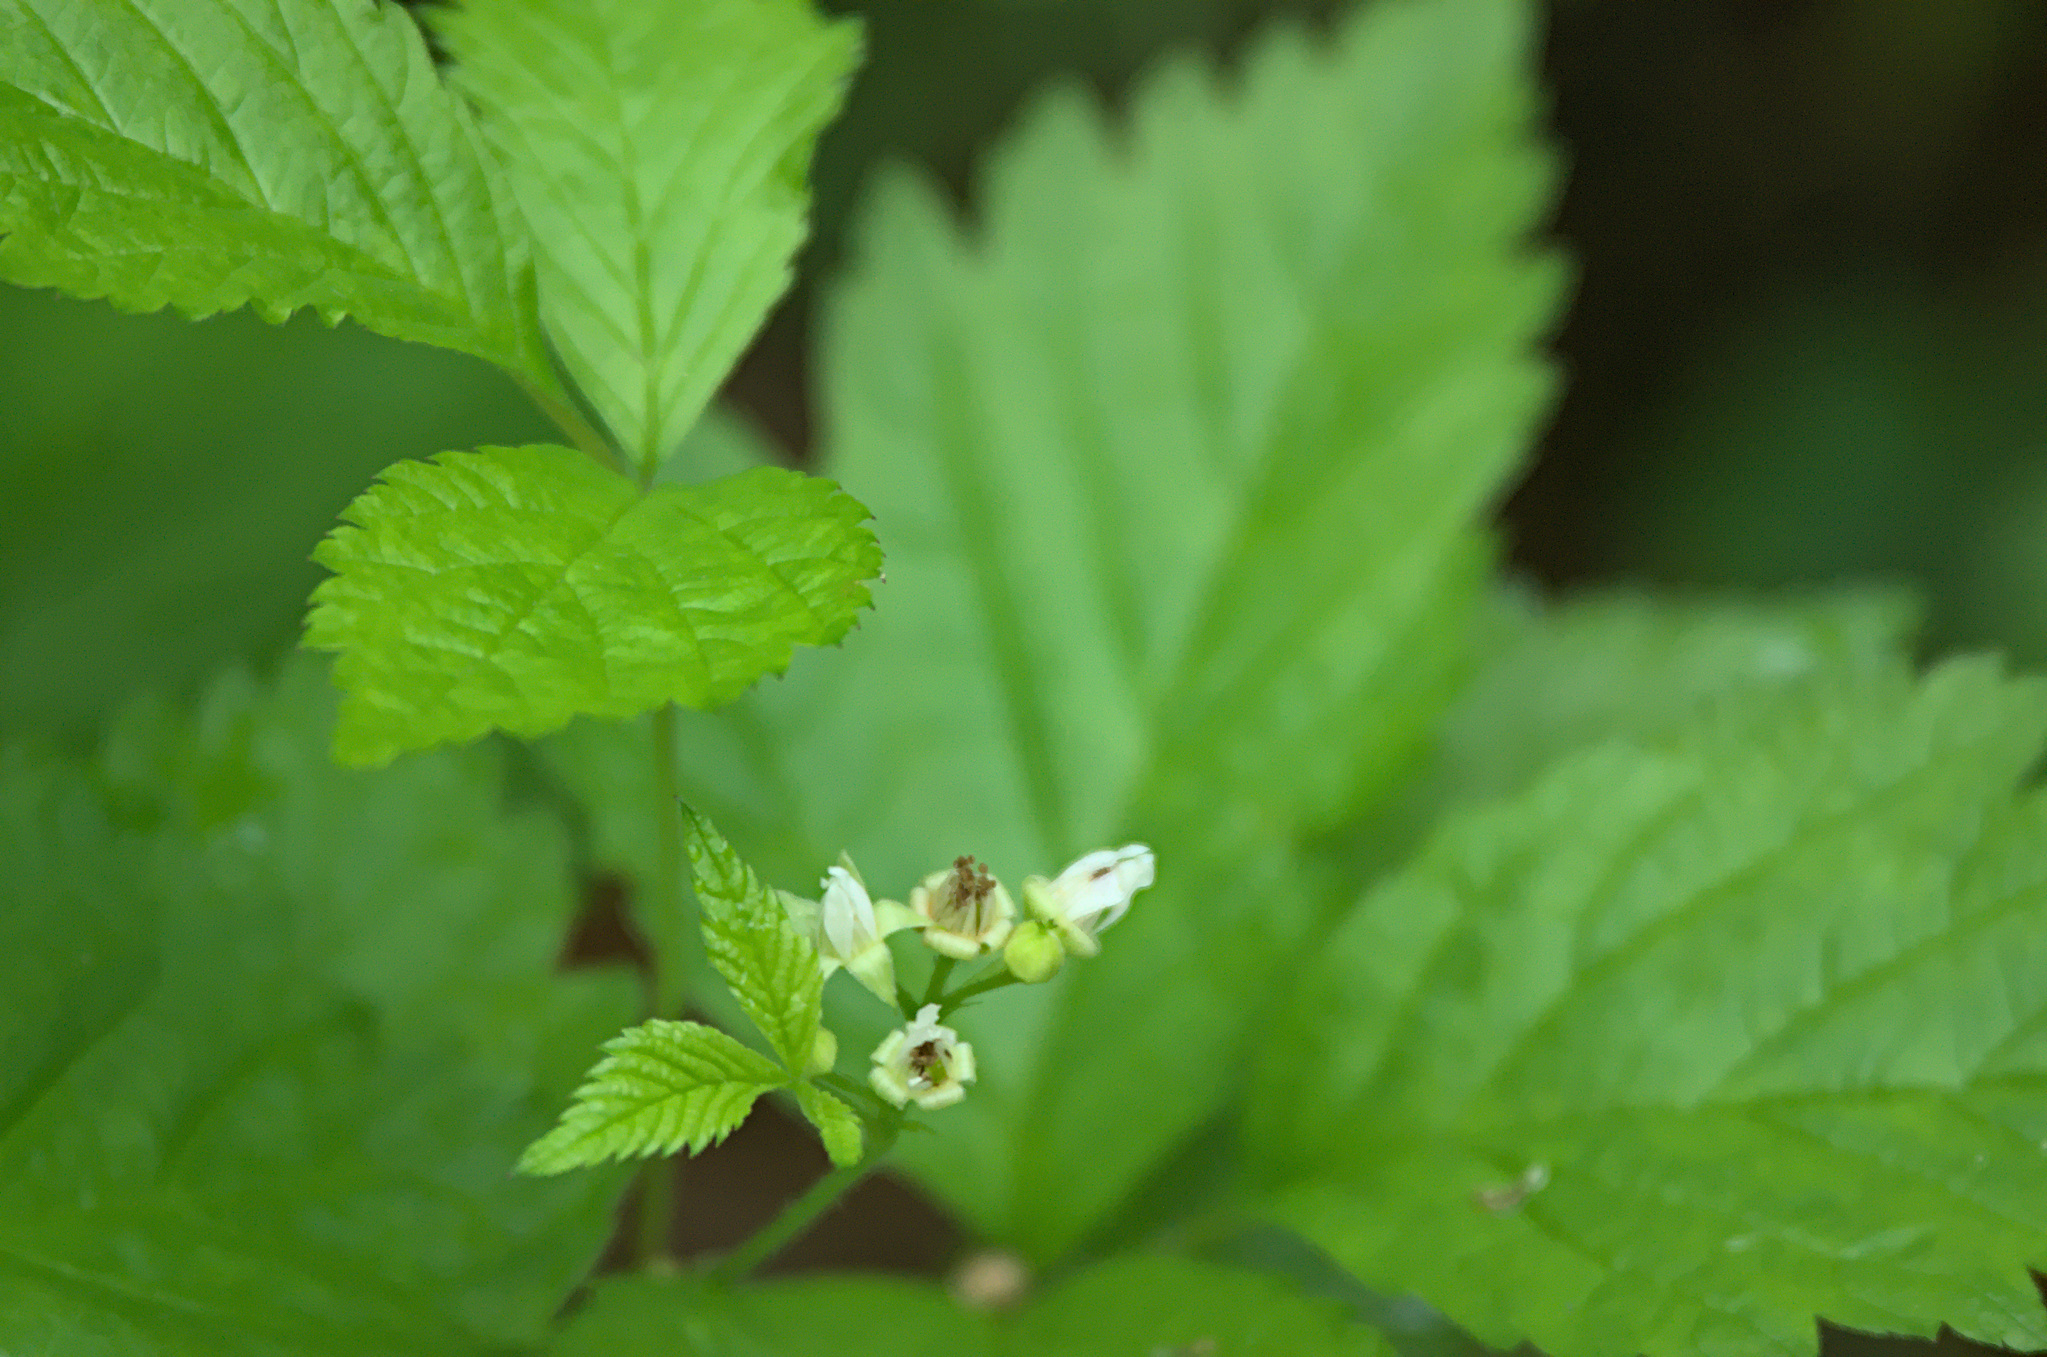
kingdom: Plantae
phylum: Tracheophyta
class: Magnoliopsida
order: Rosales
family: Rosaceae
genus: Rubus
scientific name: Rubus saxatilis
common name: Stone bramble
